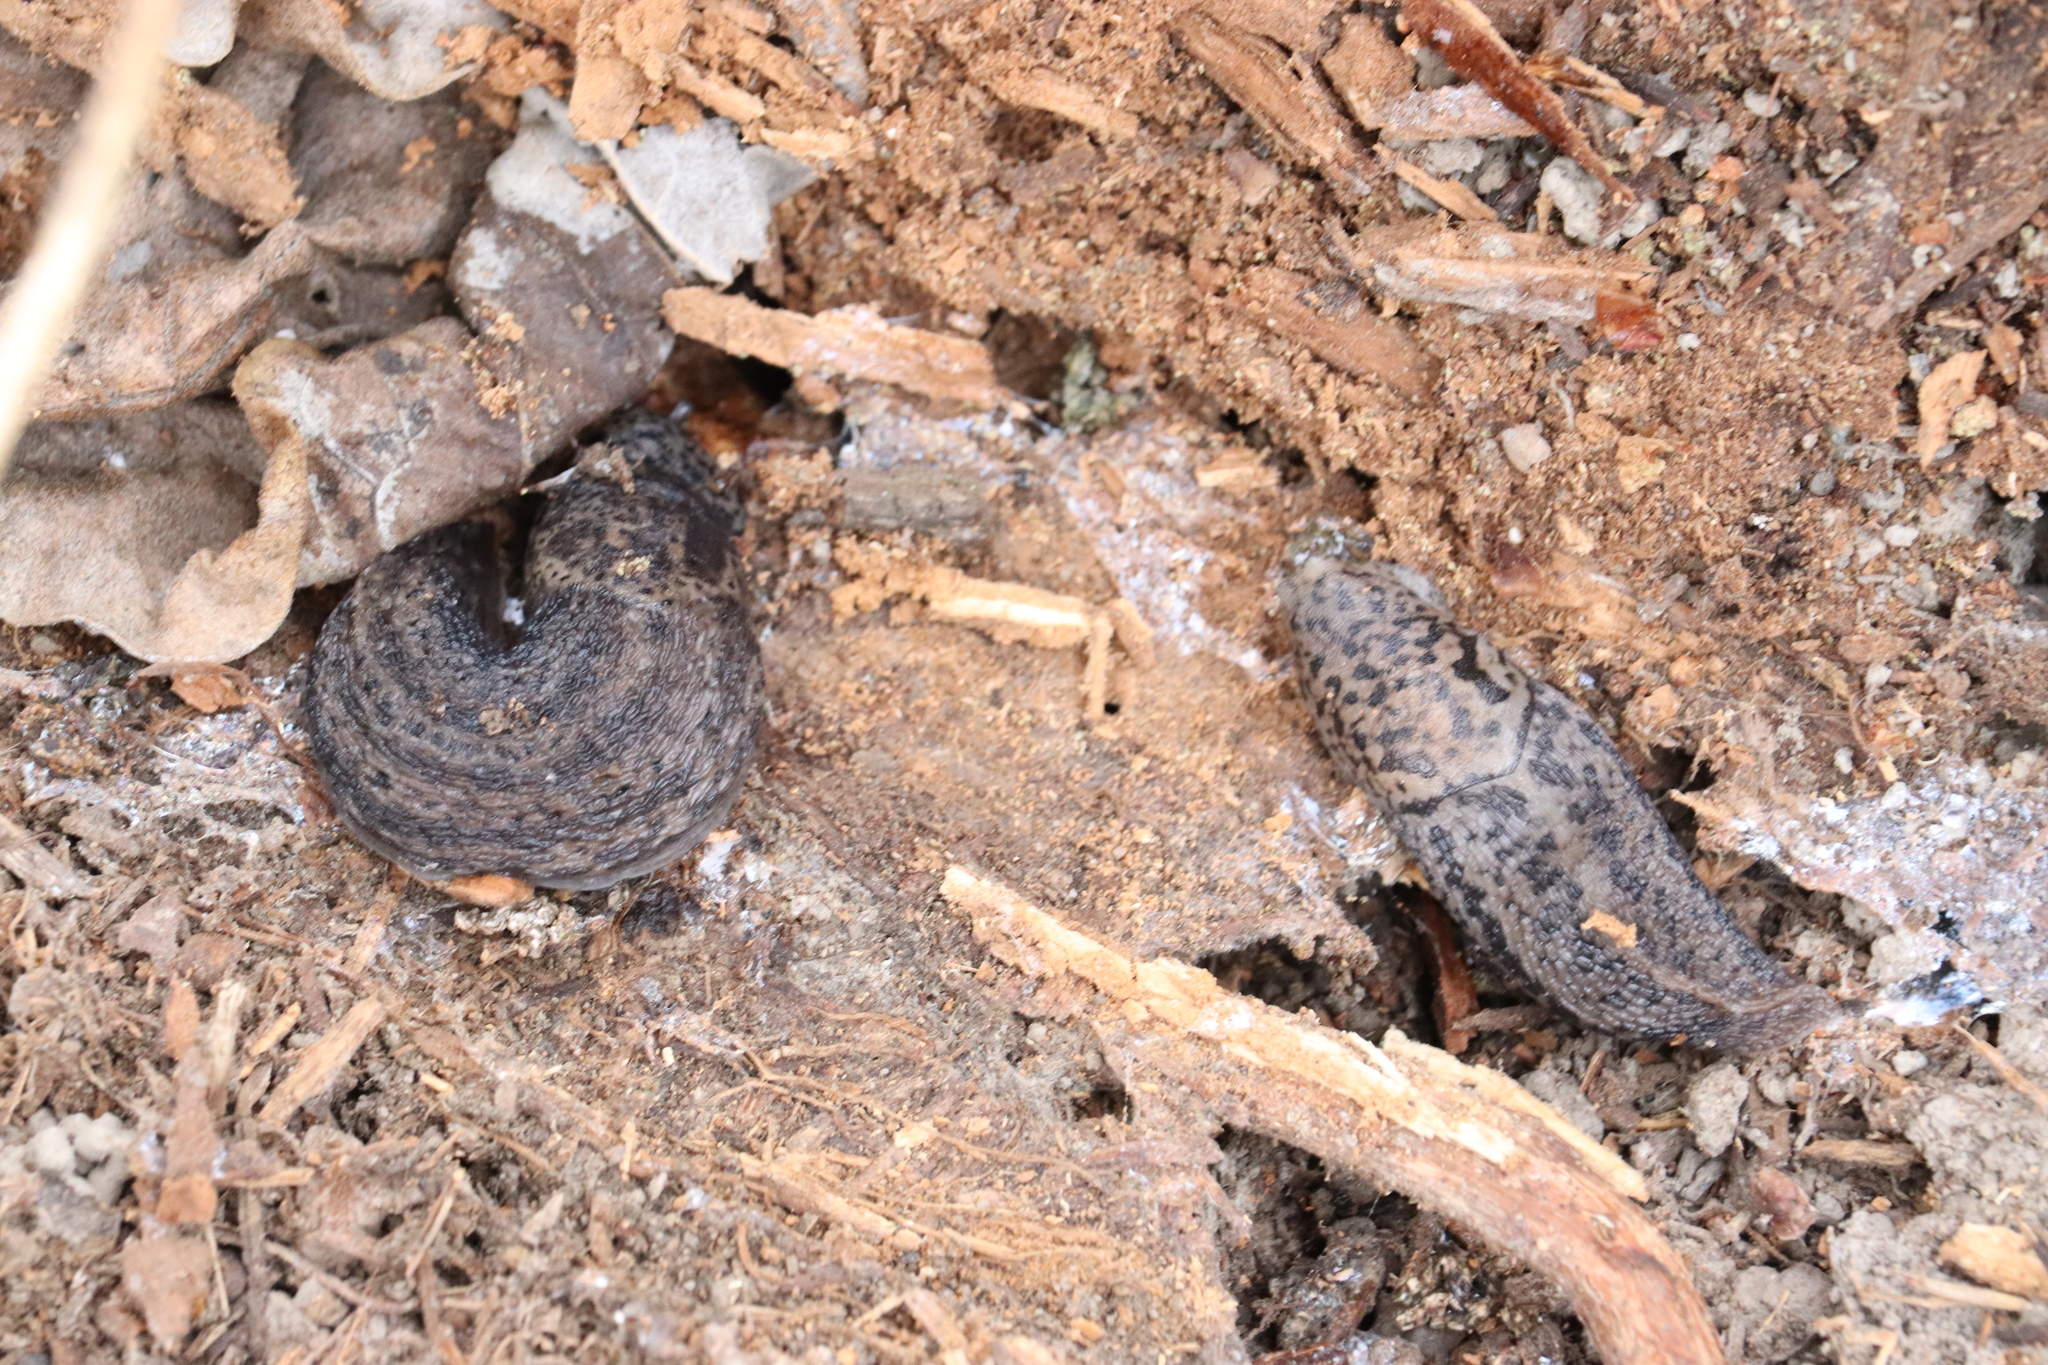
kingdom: Animalia
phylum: Mollusca
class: Gastropoda
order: Stylommatophora
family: Limacidae
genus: Limax
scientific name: Limax maximus
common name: Great grey slug
